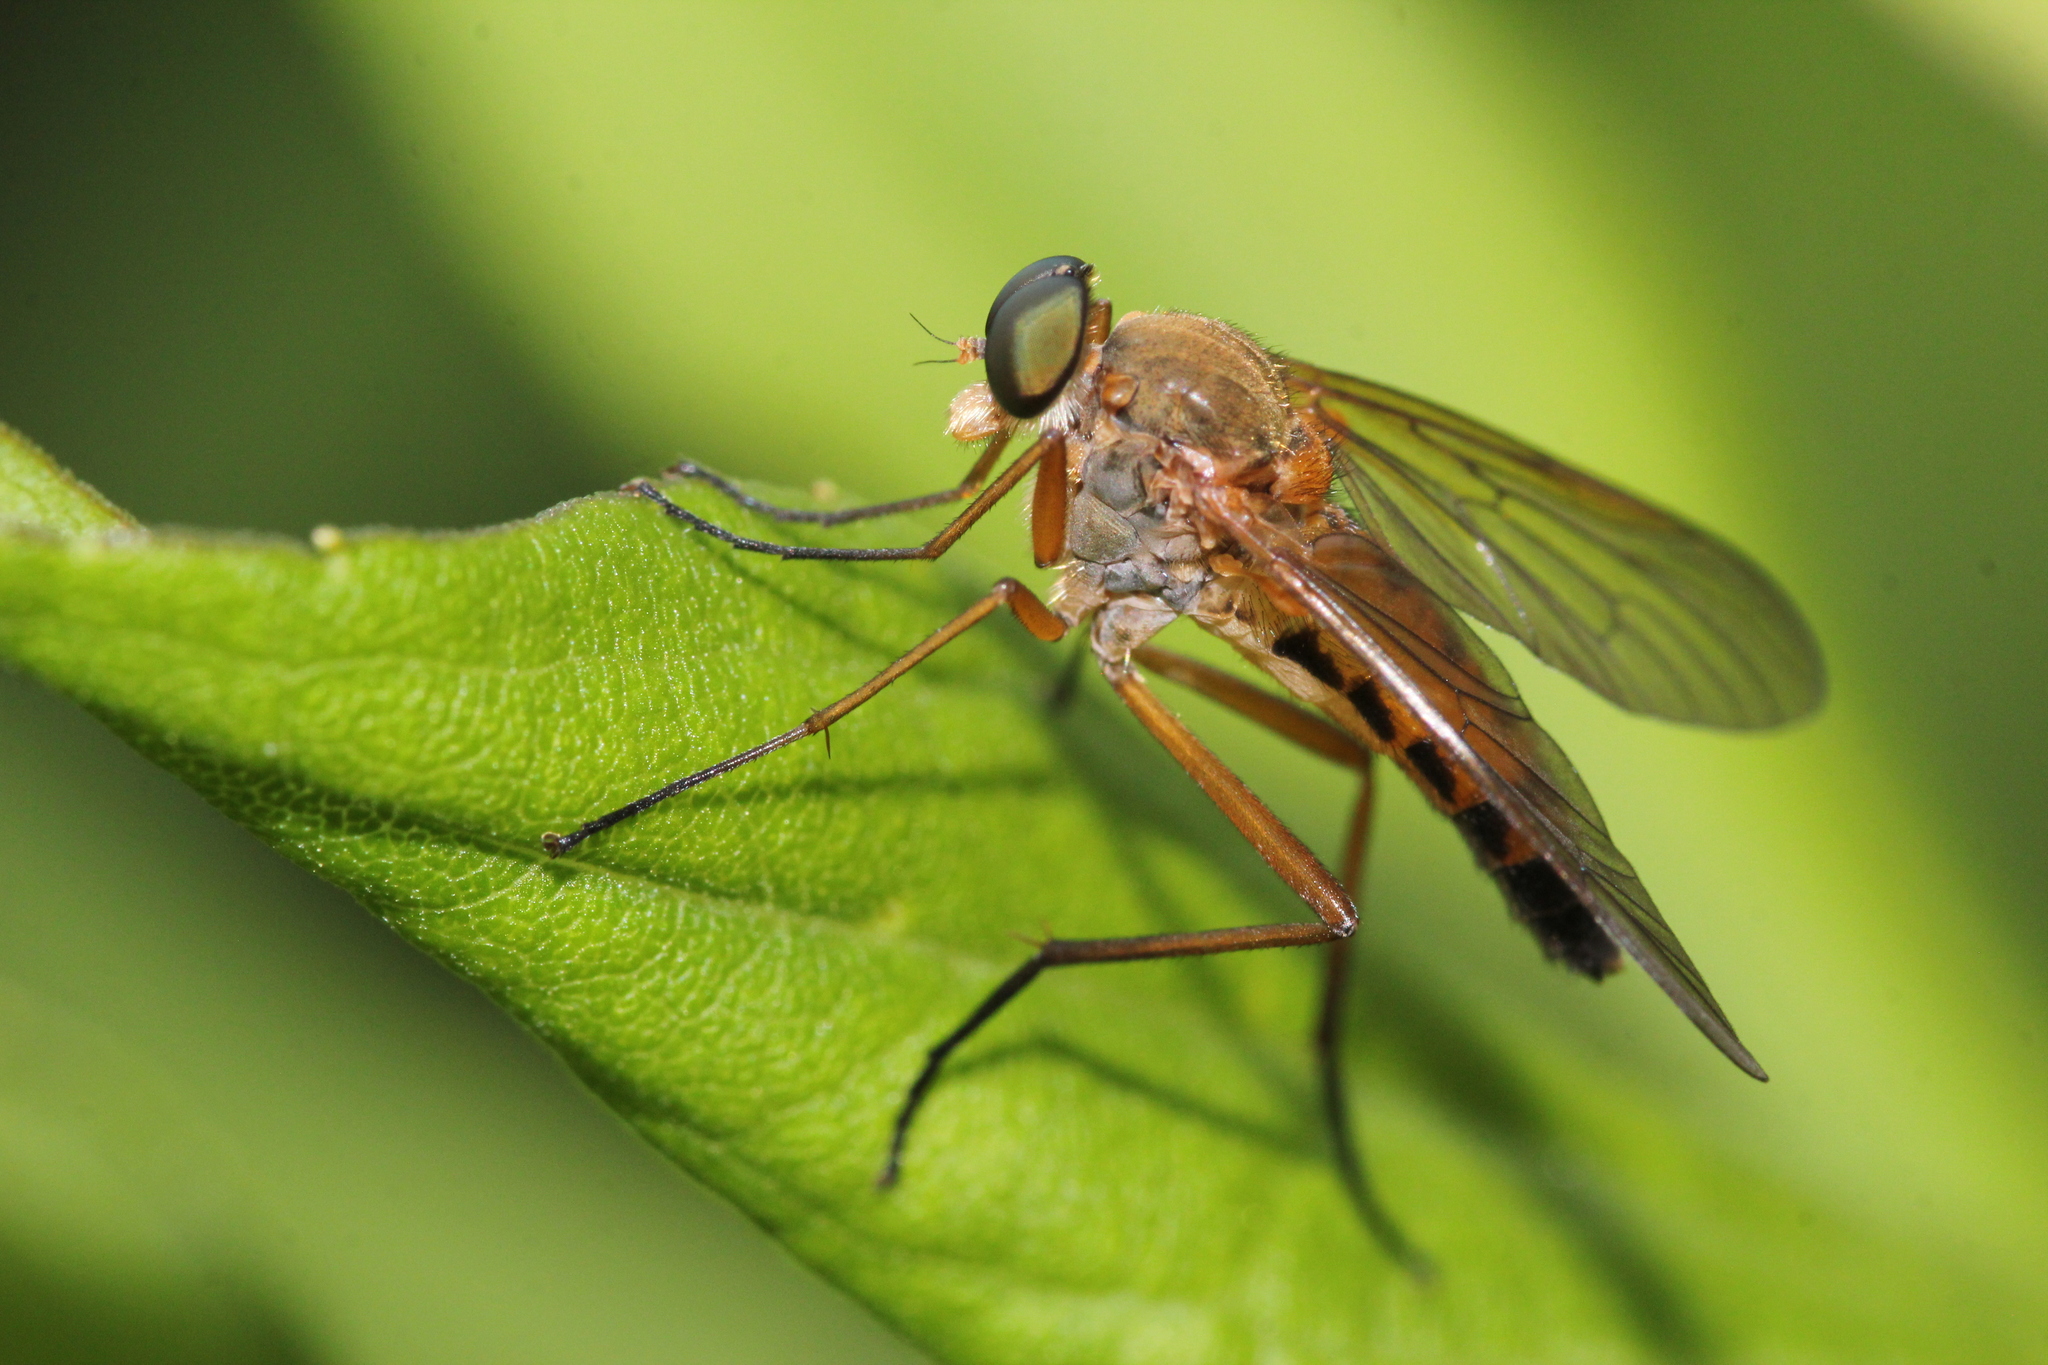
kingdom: Animalia
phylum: Arthropoda
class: Insecta
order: Diptera
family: Rhagionidae
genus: Rhagio
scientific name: Rhagio tringaria
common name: Marsh snipefly
